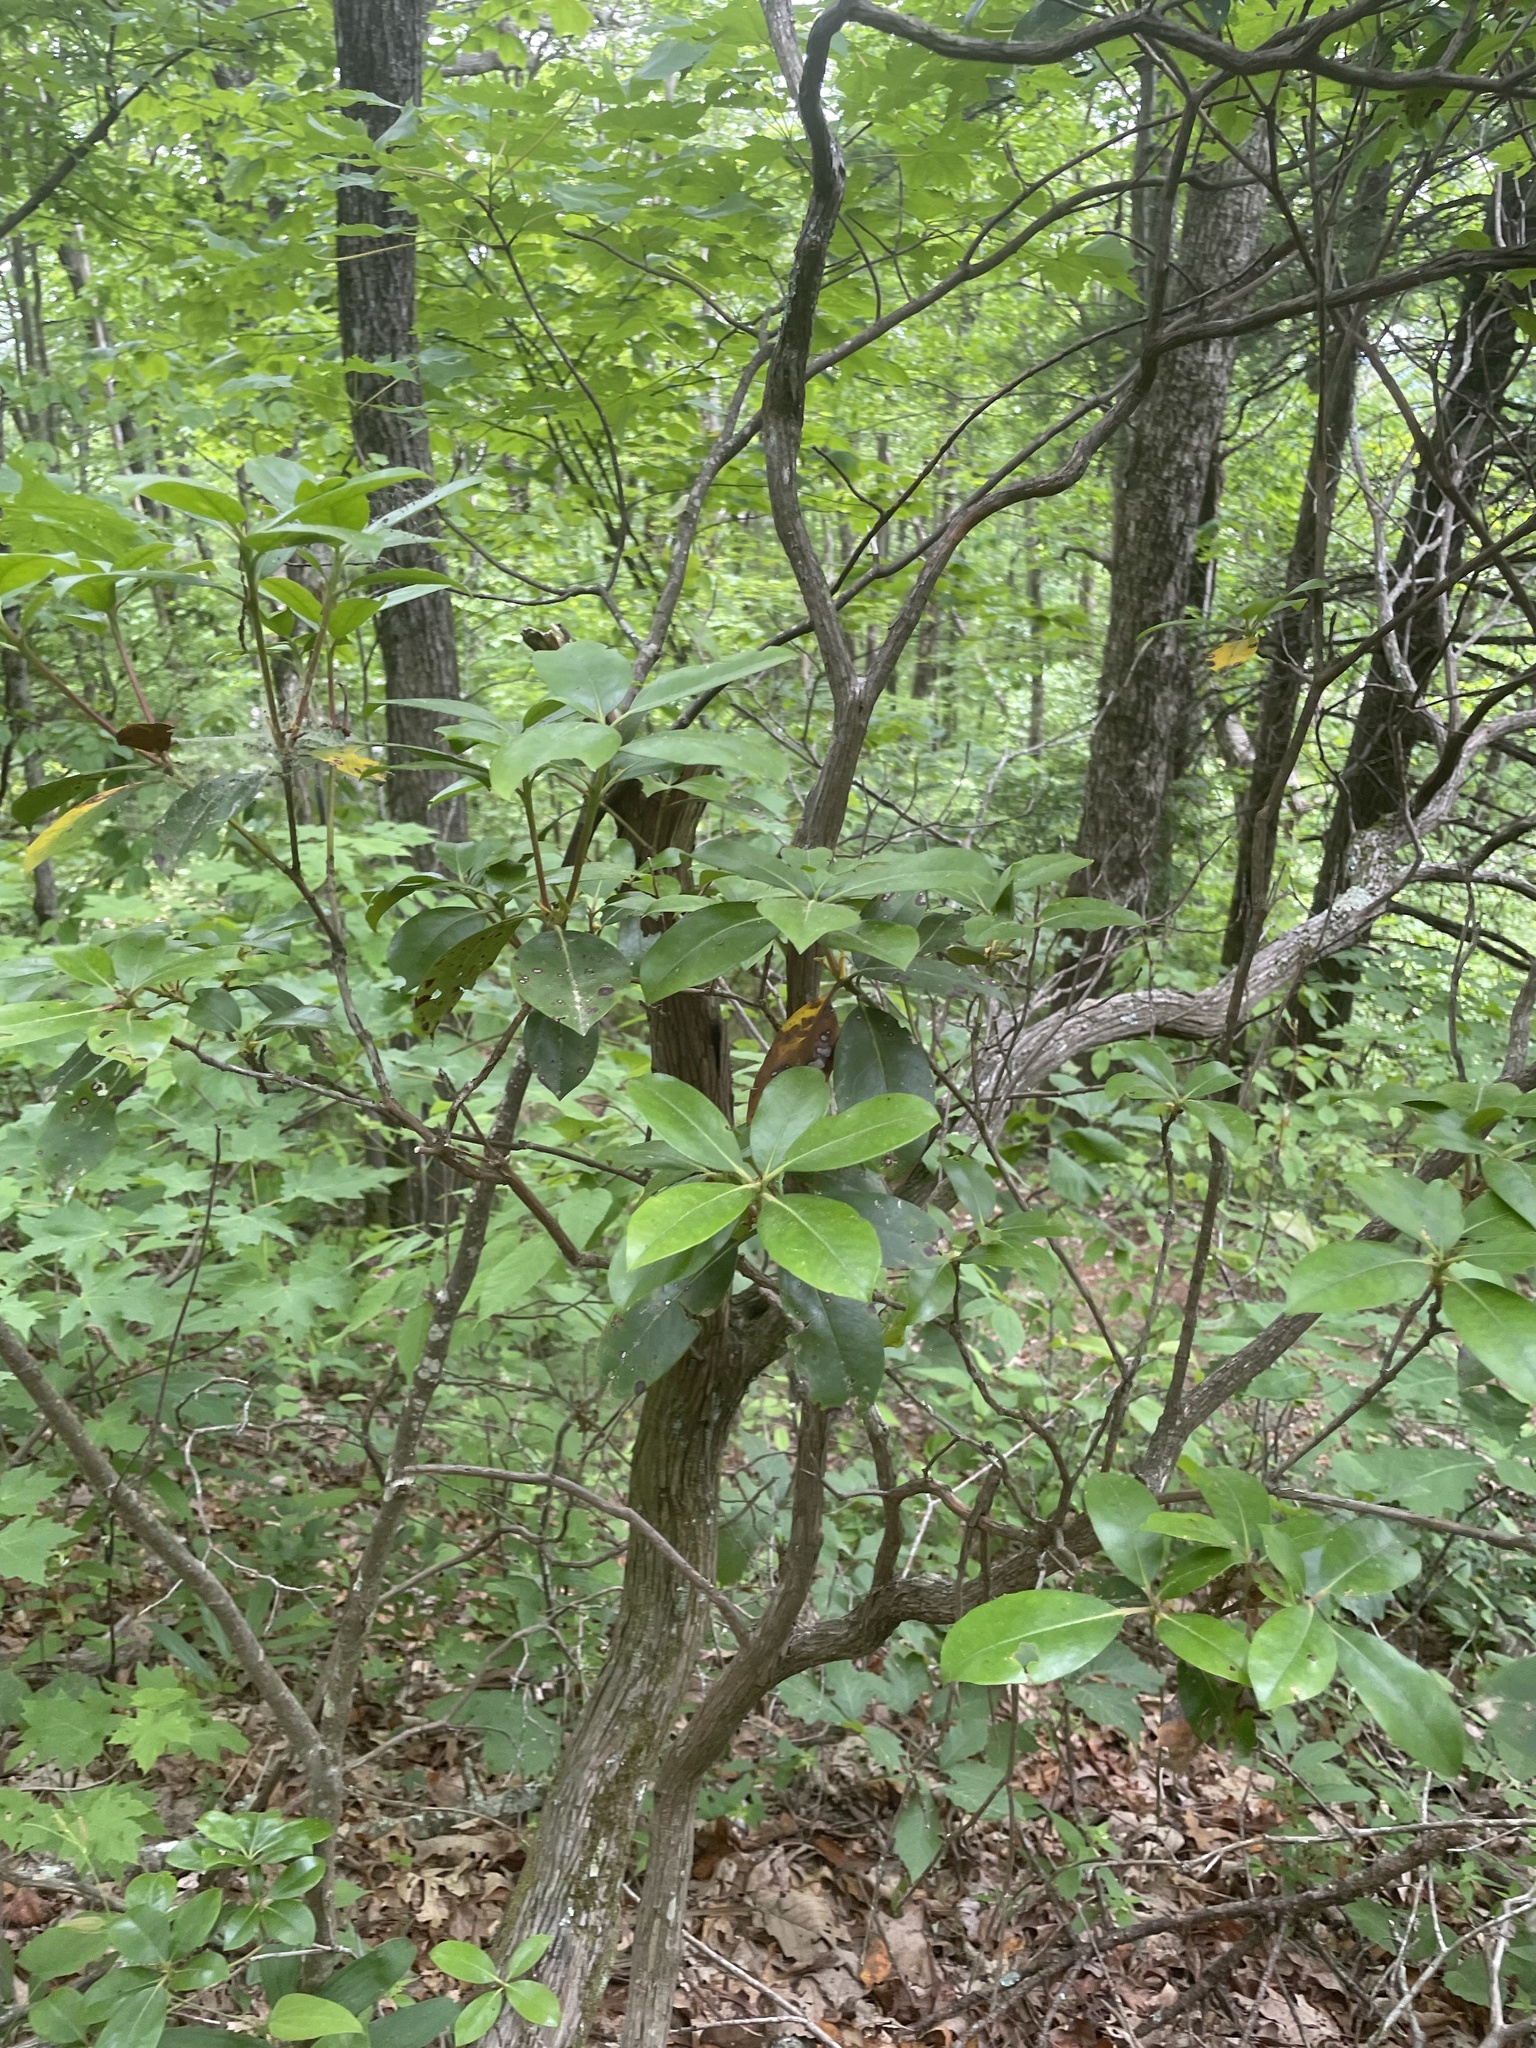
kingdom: Plantae
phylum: Tracheophyta
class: Magnoliopsida
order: Ericales
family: Ericaceae
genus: Kalmia
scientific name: Kalmia latifolia
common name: Mountain-laurel
